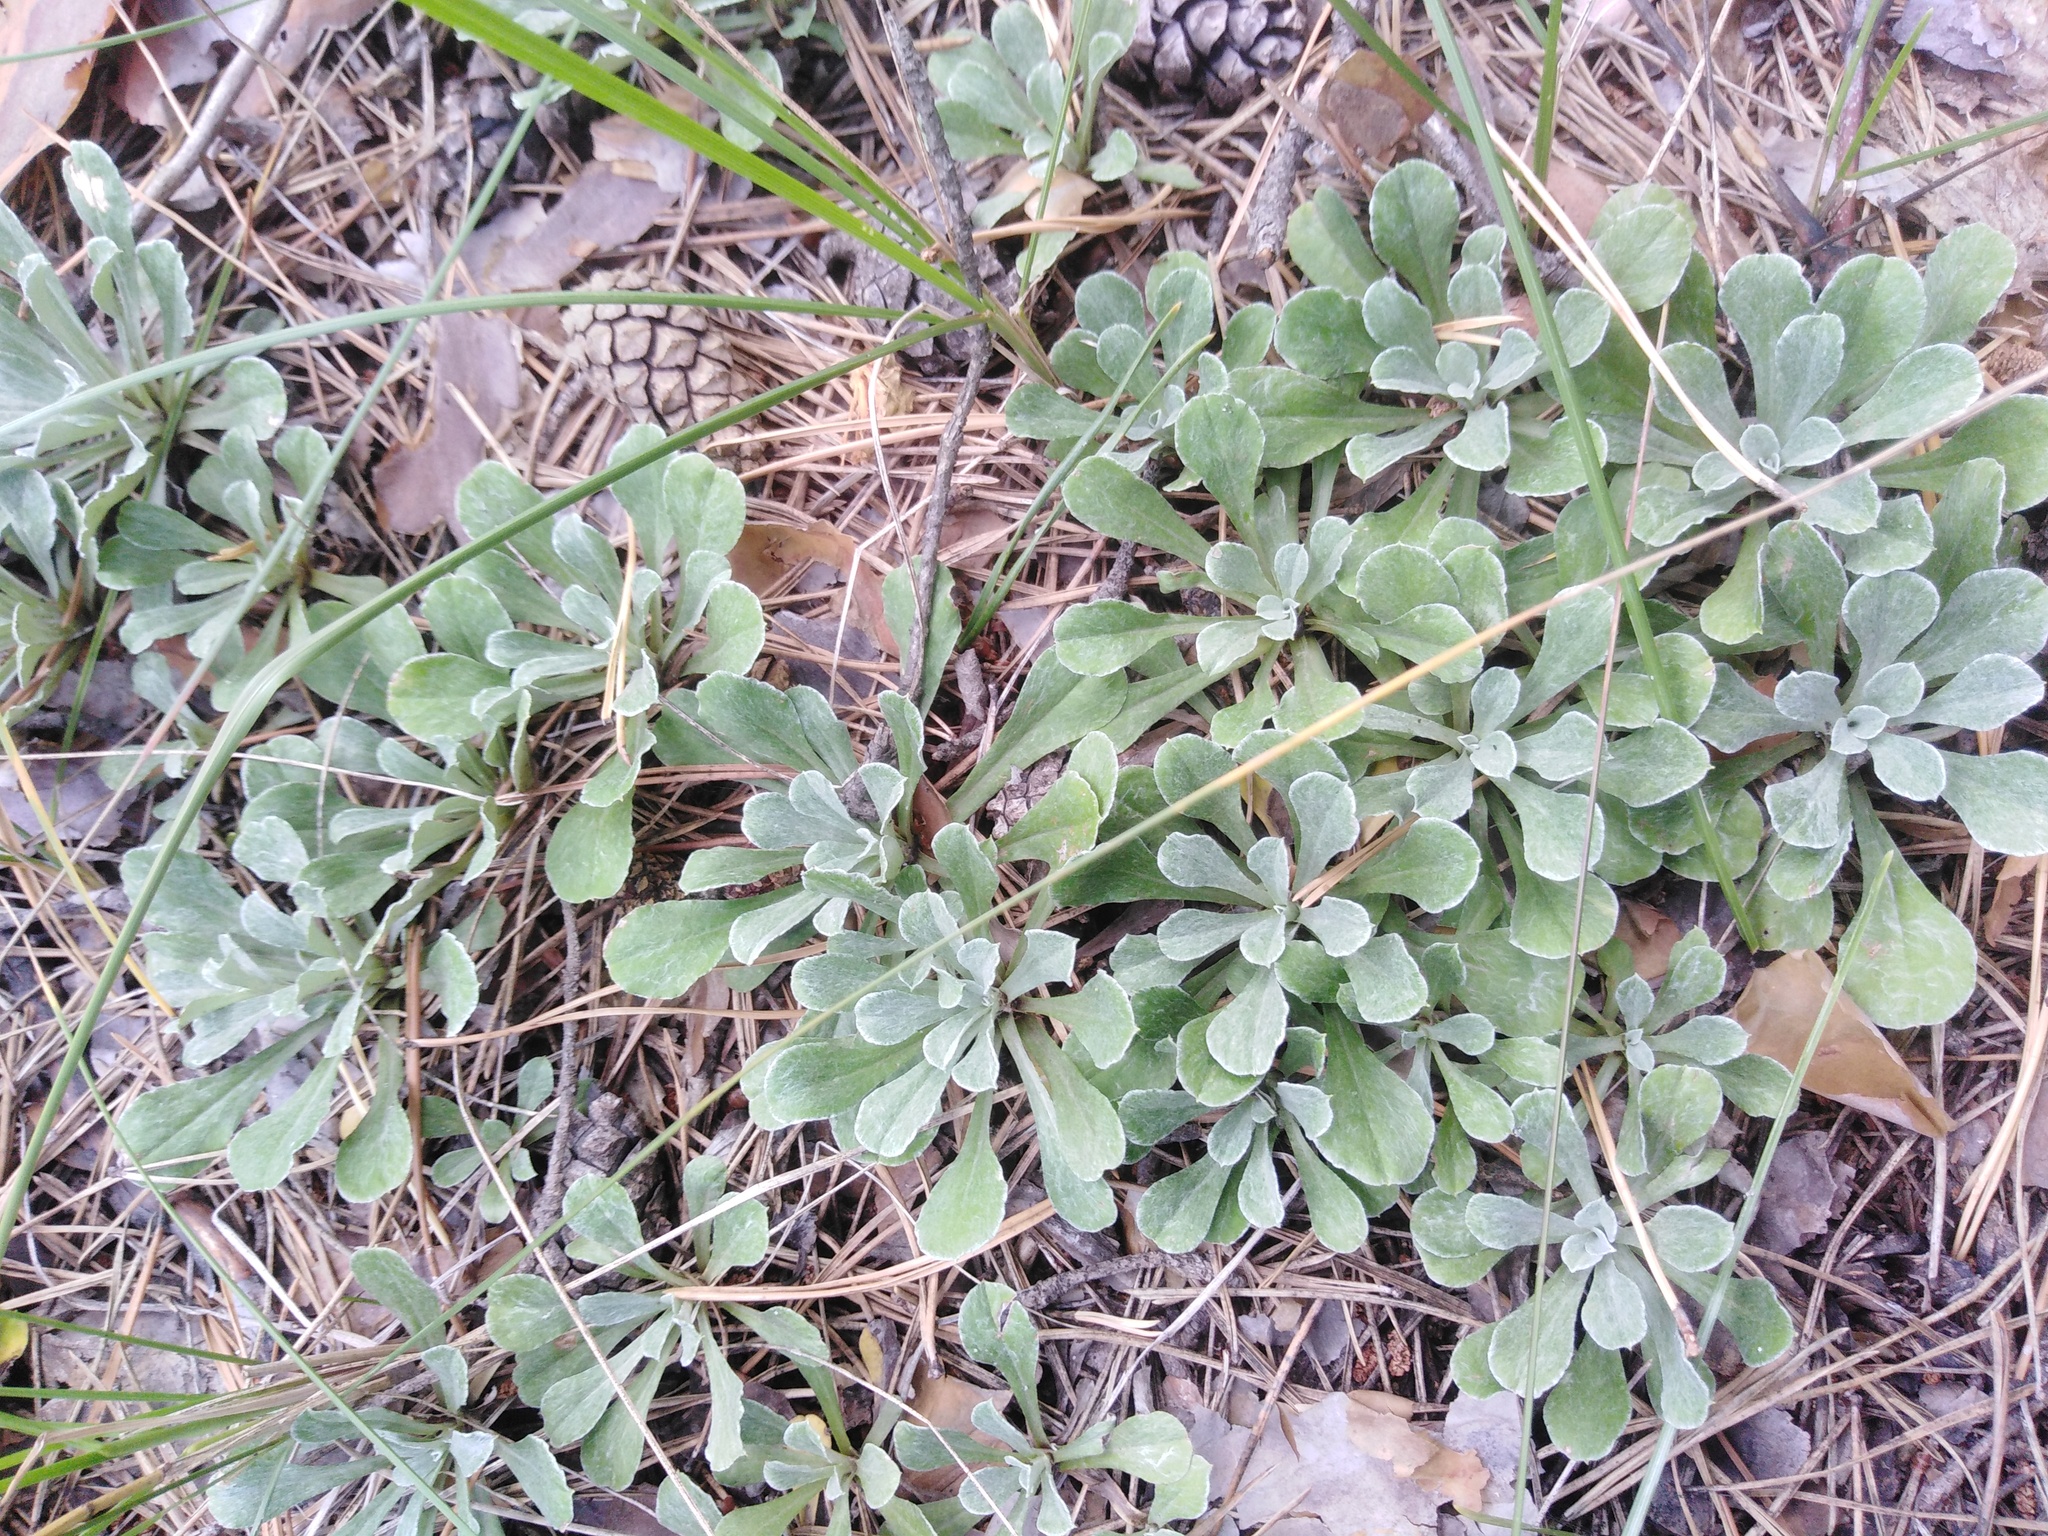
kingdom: Plantae
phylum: Tracheophyta
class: Magnoliopsida
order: Asterales
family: Asteraceae
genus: Antennaria
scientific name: Antennaria dioica
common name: Mountain everlasting
